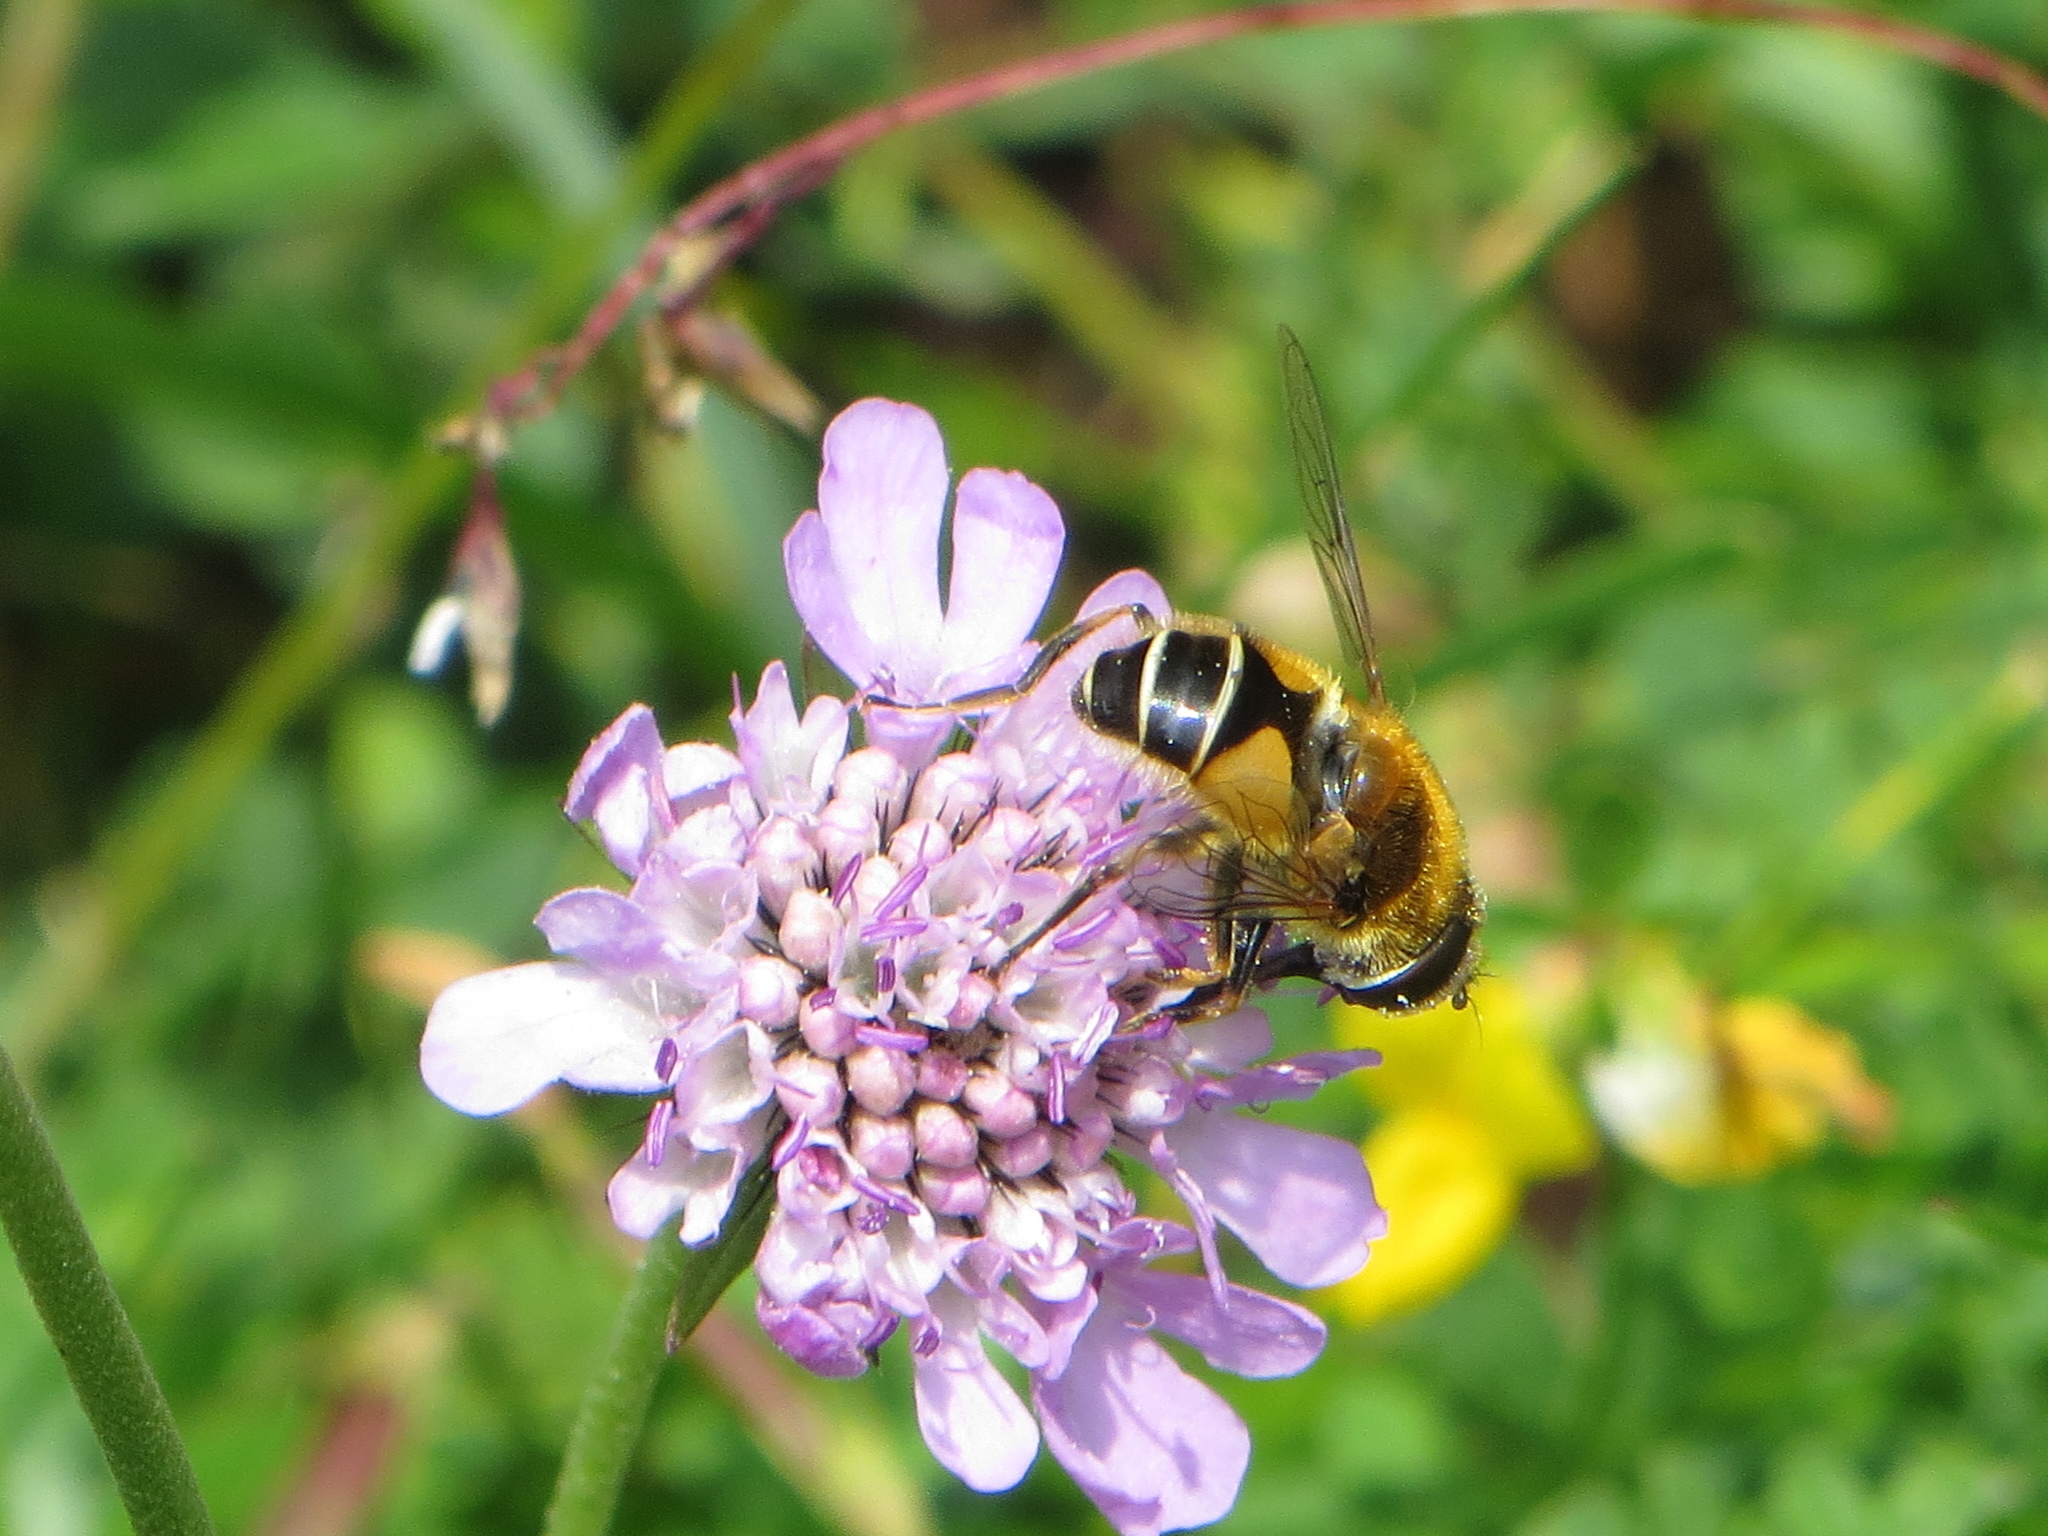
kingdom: Animalia
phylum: Arthropoda
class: Insecta
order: Diptera
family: Syrphidae
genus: Eristalis
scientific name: Eristalis jugorum
